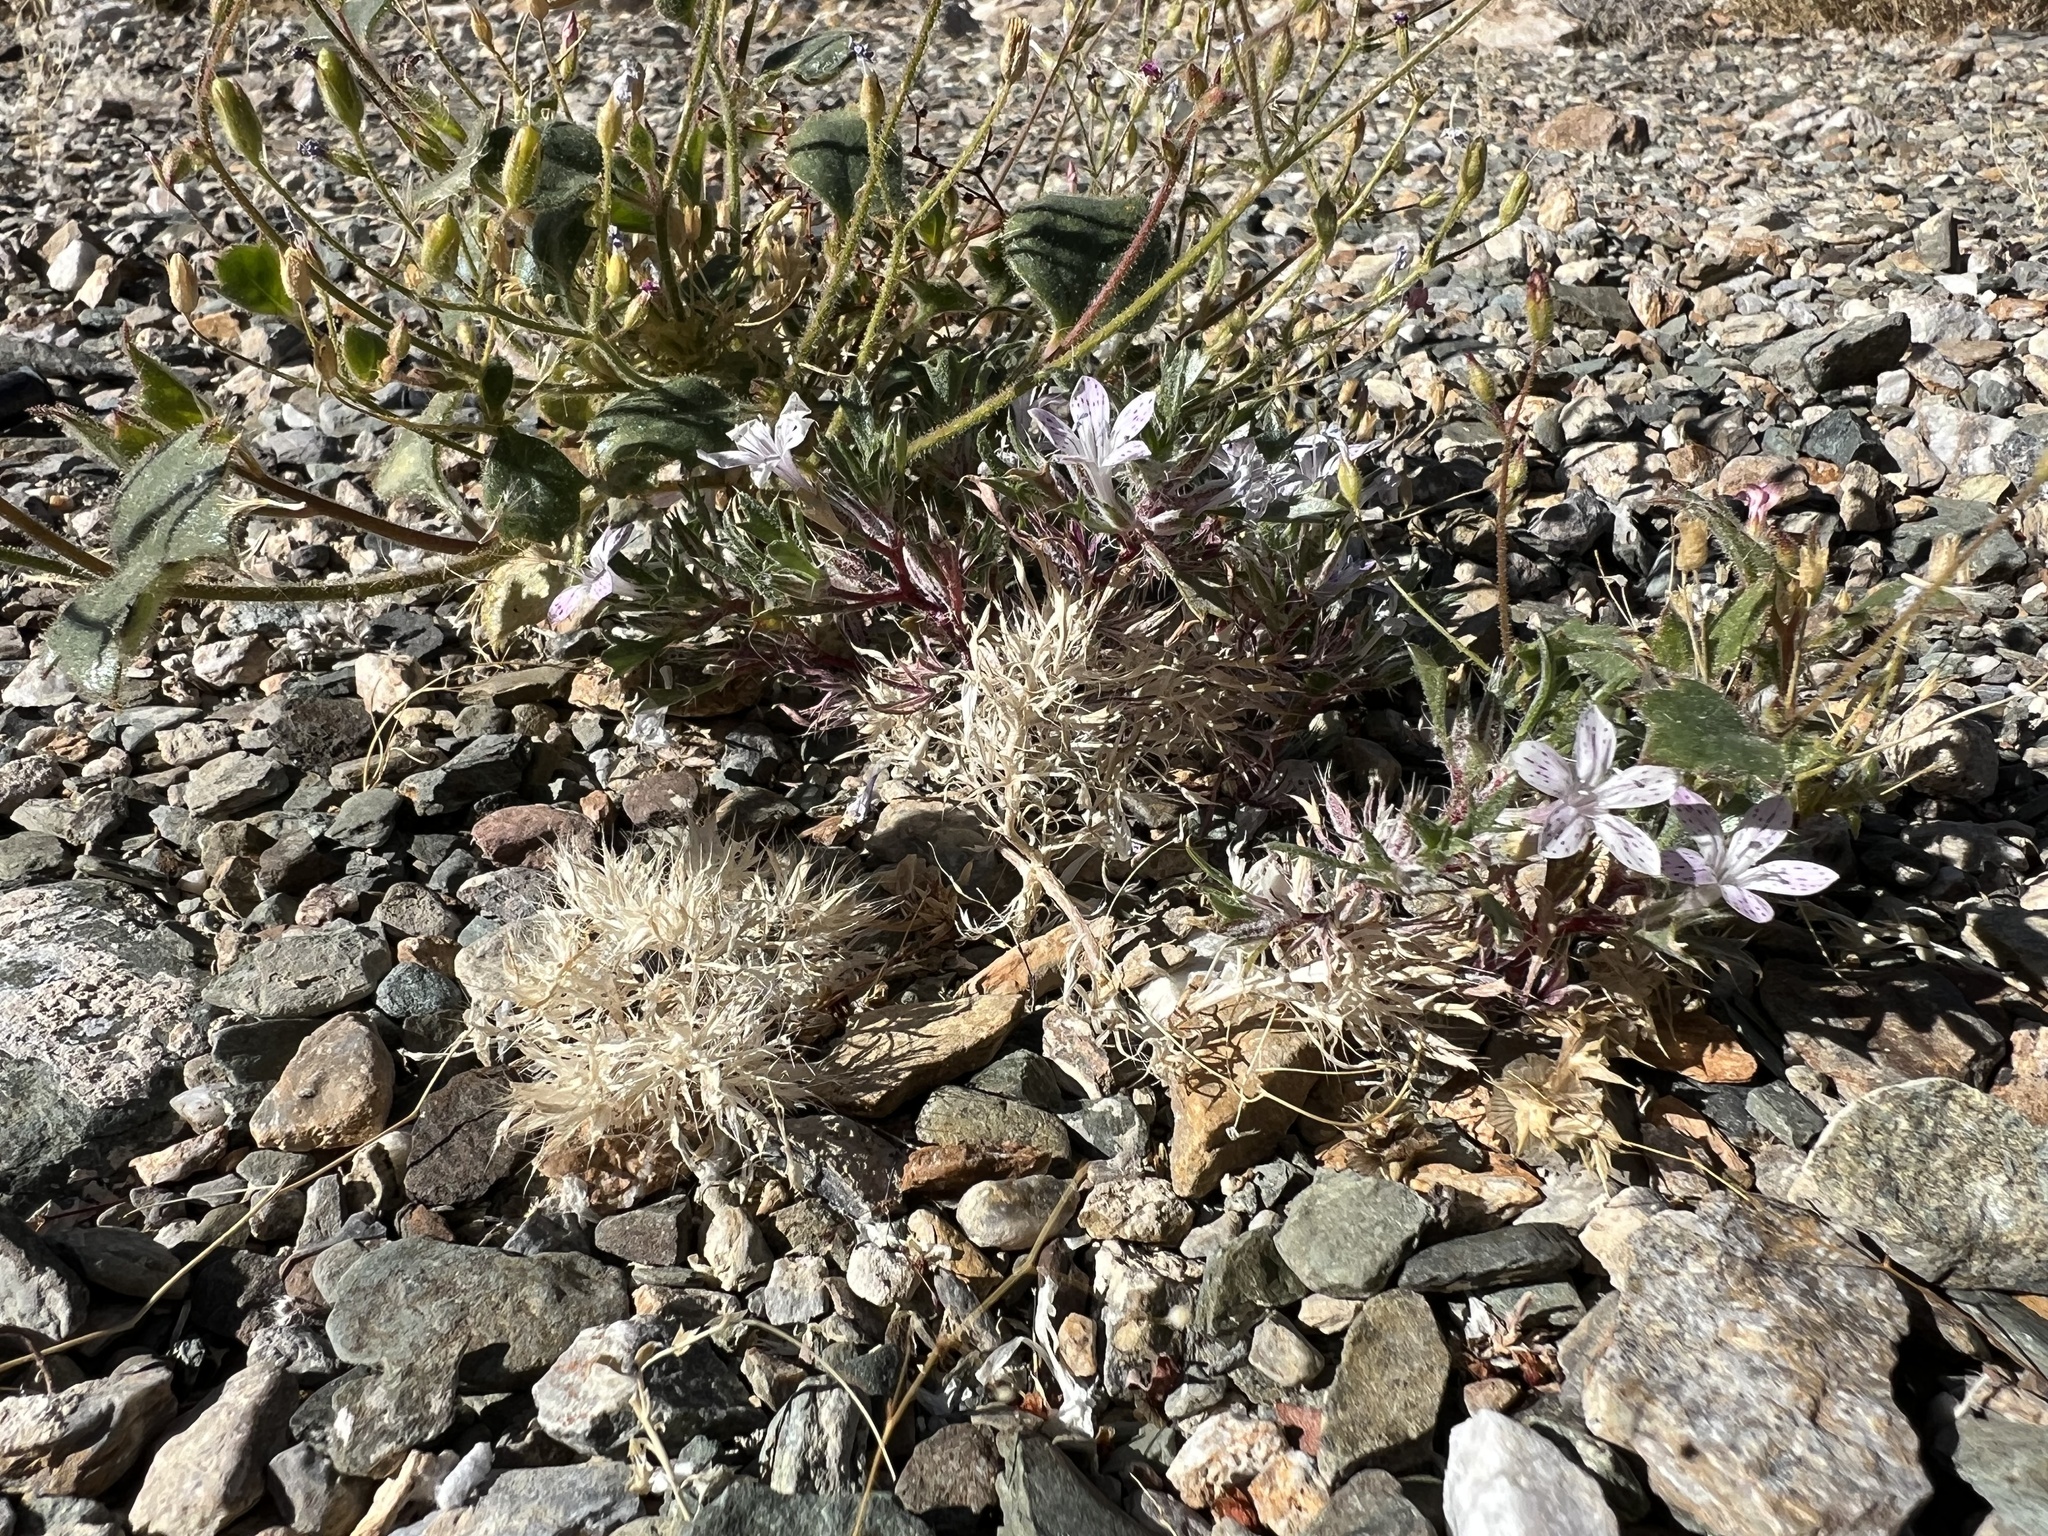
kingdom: Plantae
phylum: Tracheophyta
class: Magnoliopsida
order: Ericales
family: Polemoniaceae
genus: Langloisia
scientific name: Langloisia setosissima
